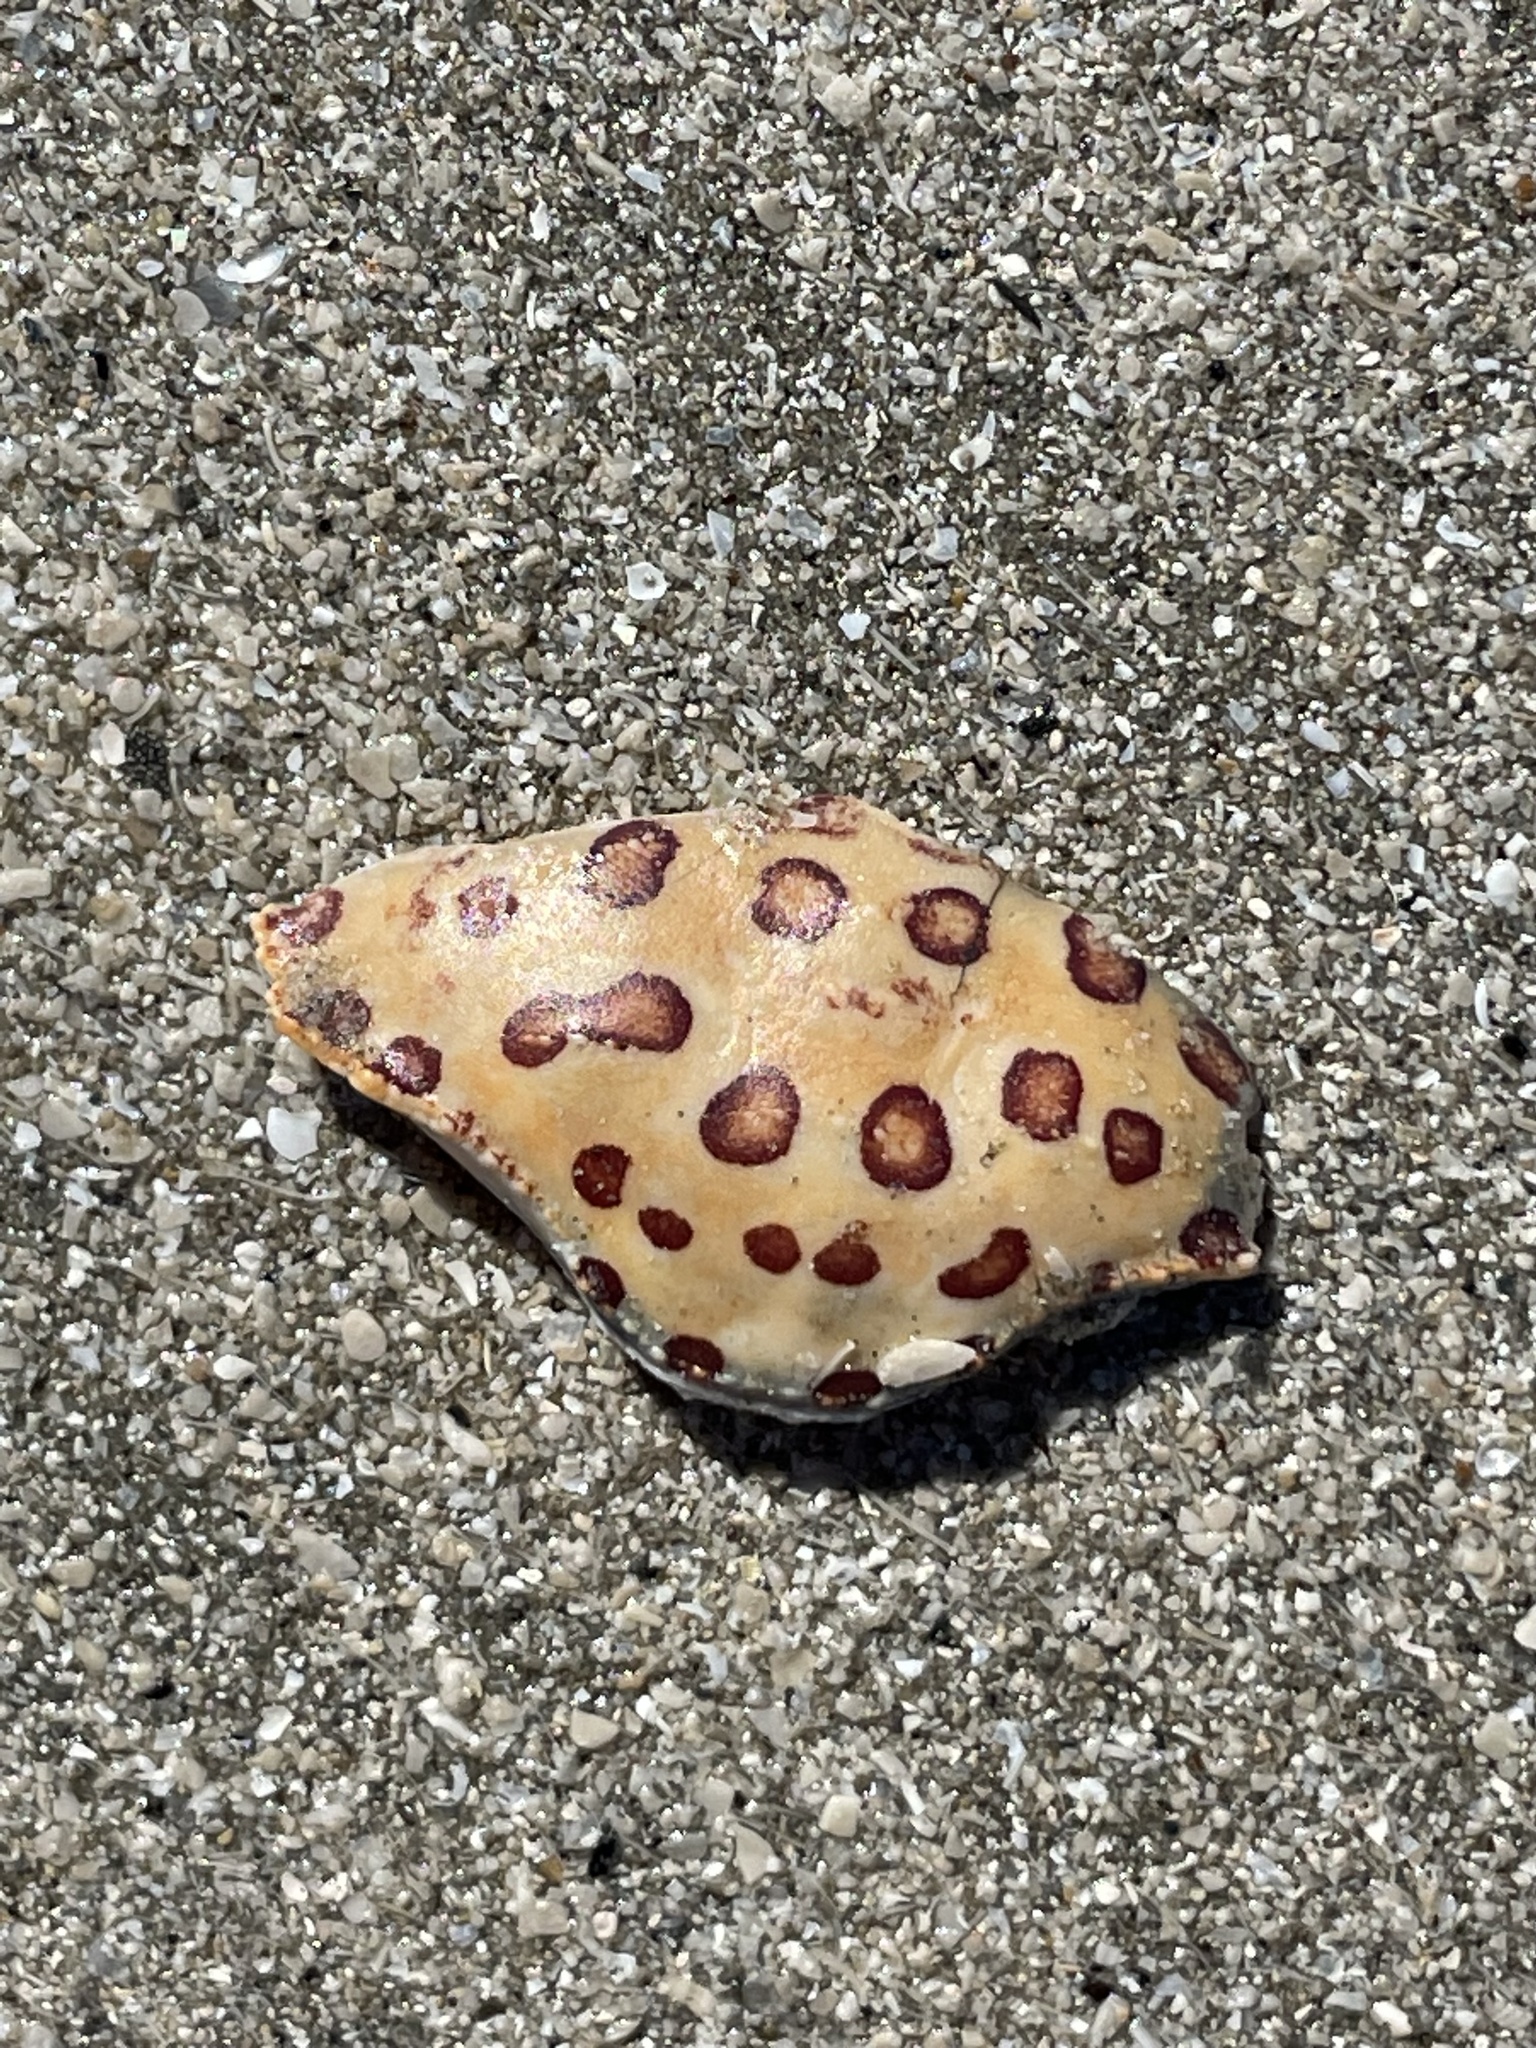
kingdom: Animalia
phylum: Arthropoda
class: Malacostraca
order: Decapoda
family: Aethridae
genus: Hepatus
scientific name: Hepatus epheliticus
